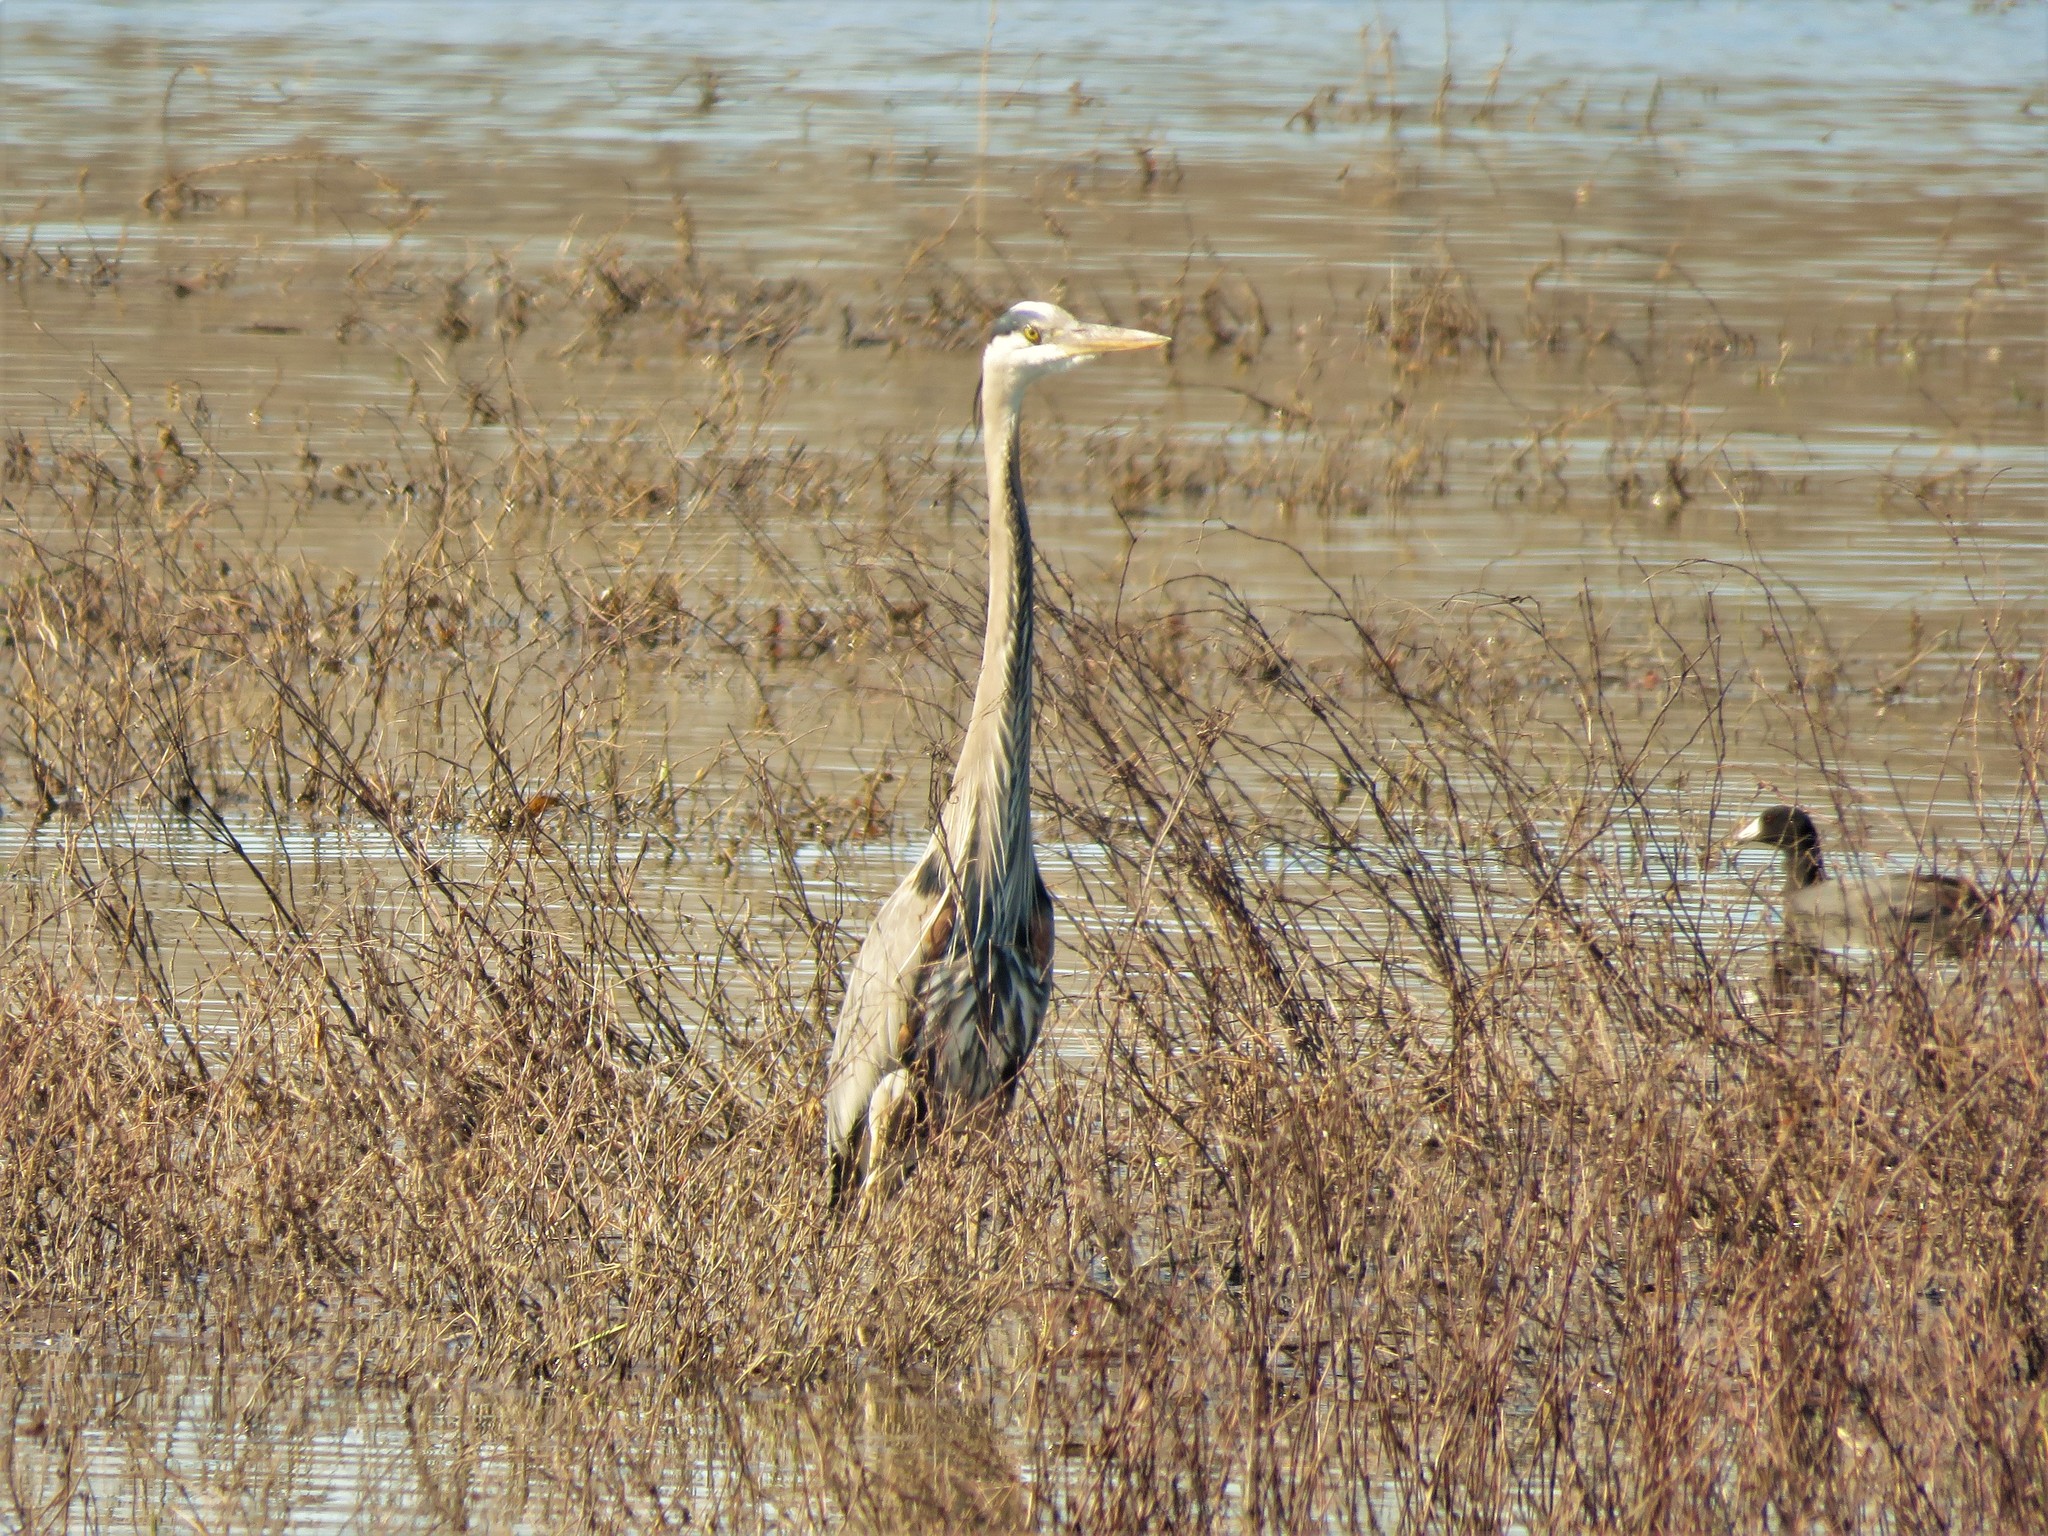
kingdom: Animalia
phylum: Chordata
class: Aves
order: Pelecaniformes
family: Ardeidae
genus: Ardea
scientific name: Ardea herodias
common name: Great blue heron
